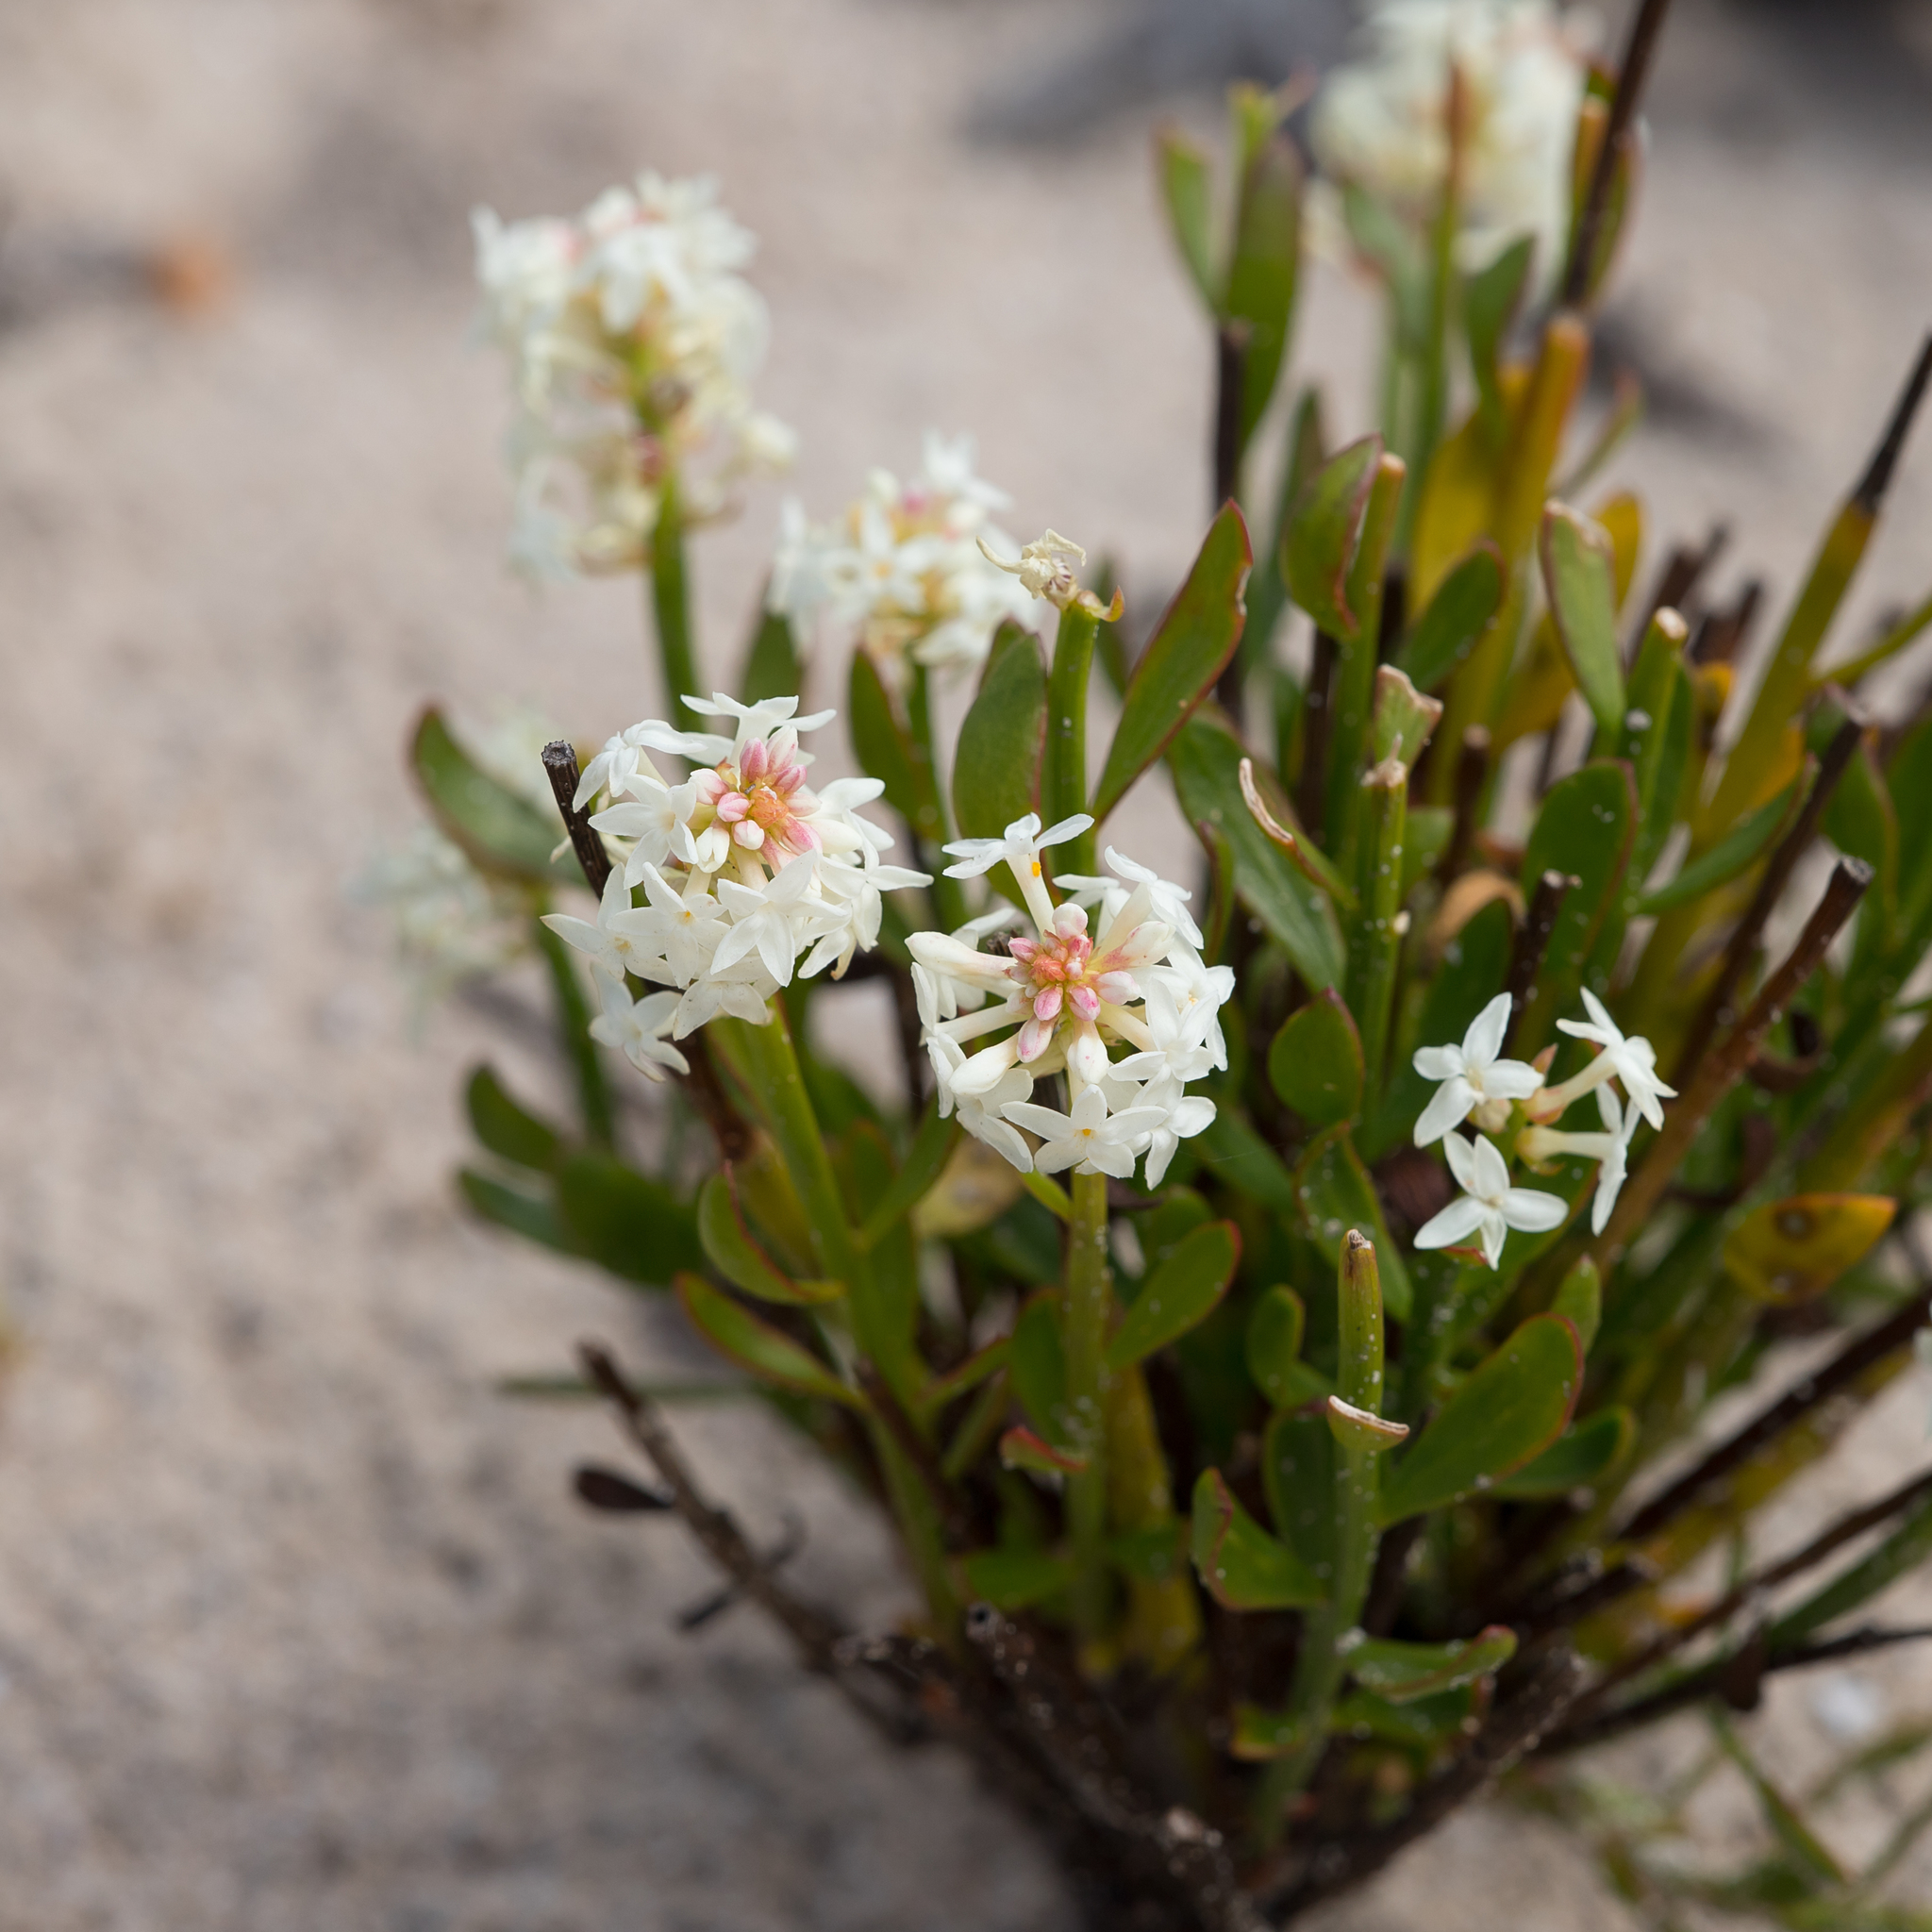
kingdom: Plantae
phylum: Tracheophyta
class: Magnoliopsida
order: Celastrales
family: Celastraceae
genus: Stackhousia
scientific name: Stackhousia spathulata
